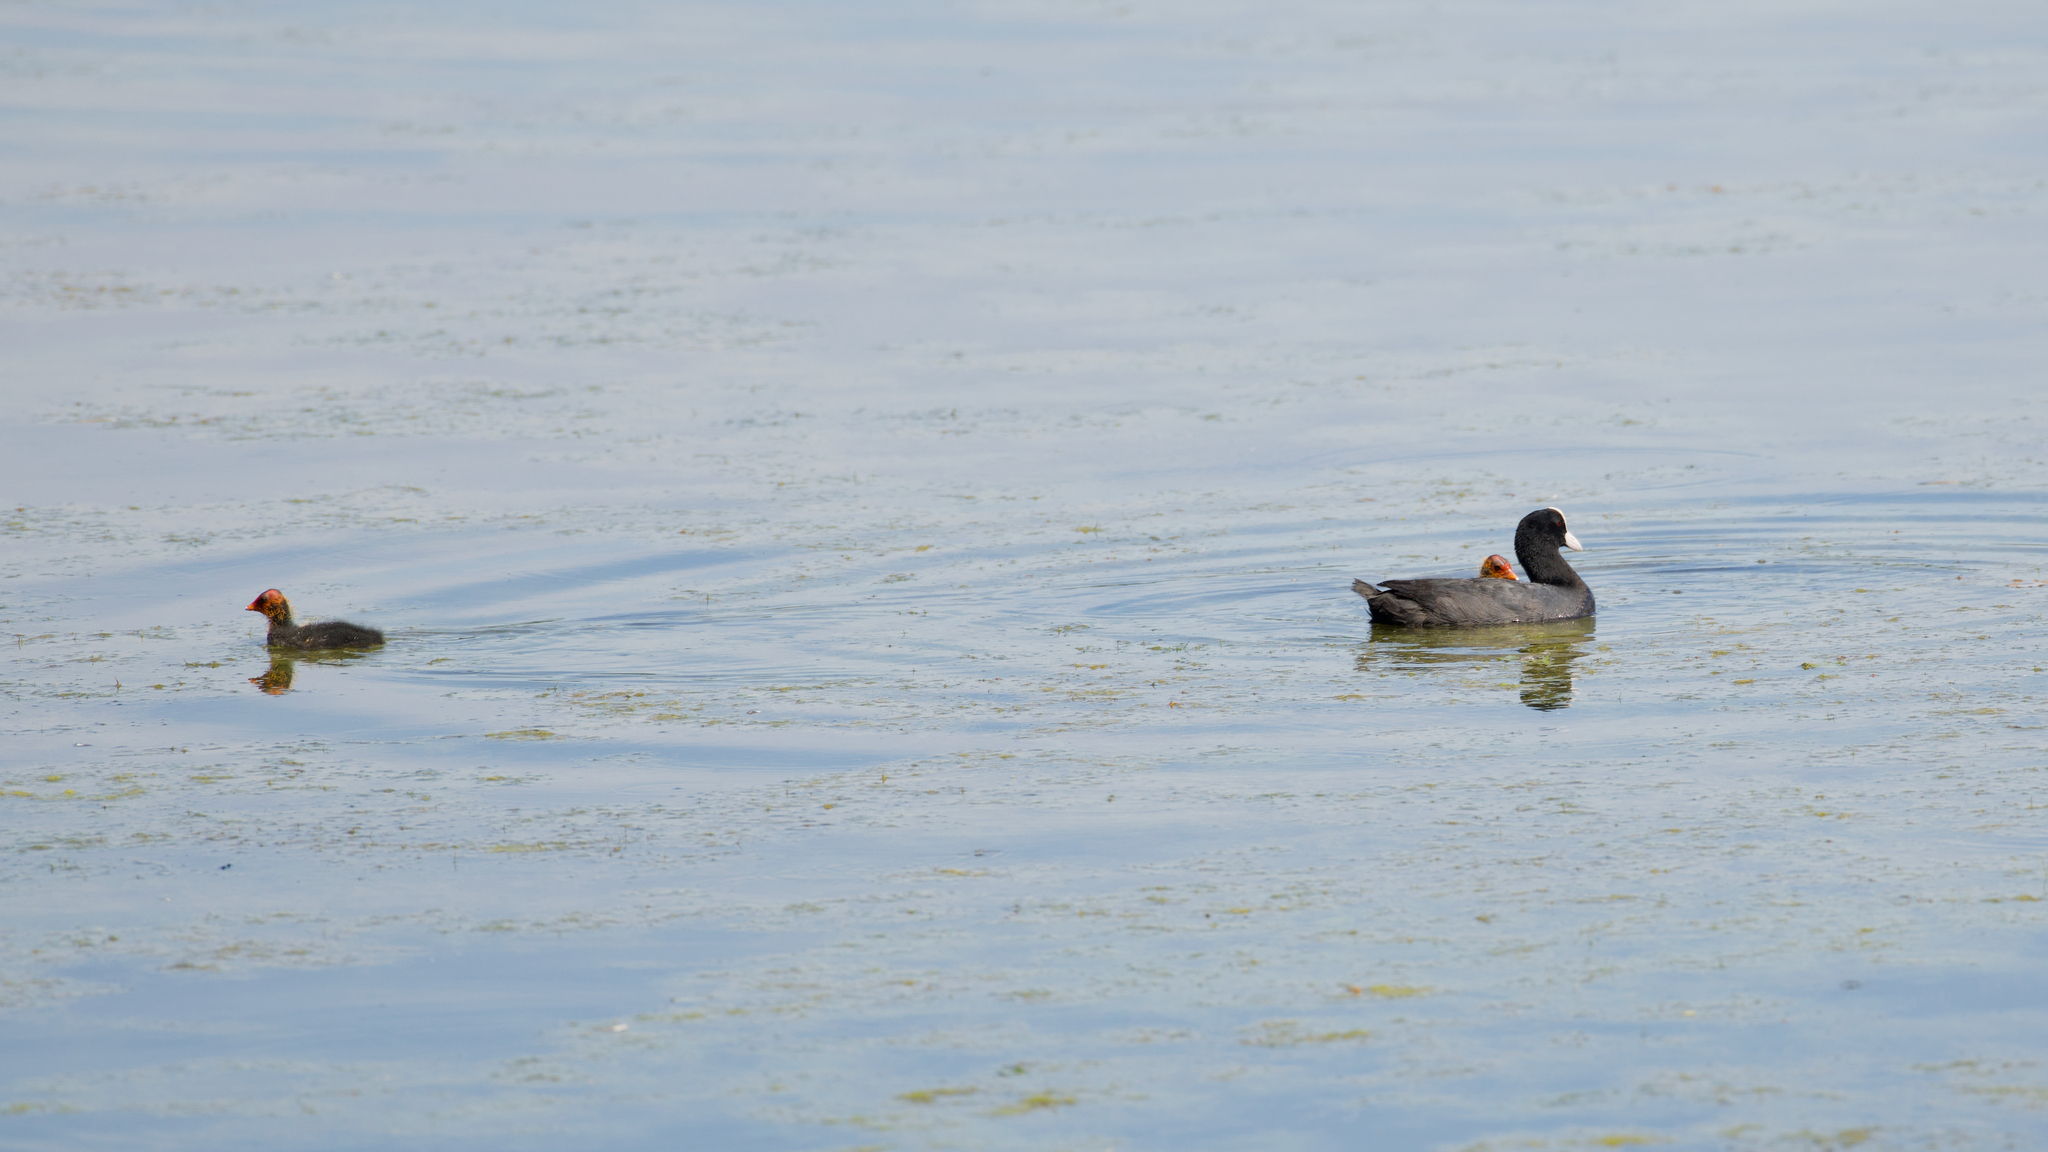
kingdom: Animalia
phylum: Chordata
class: Aves
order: Gruiformes
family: Rallidae
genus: Fulica
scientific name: Fulica atra
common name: Eurasian coot
